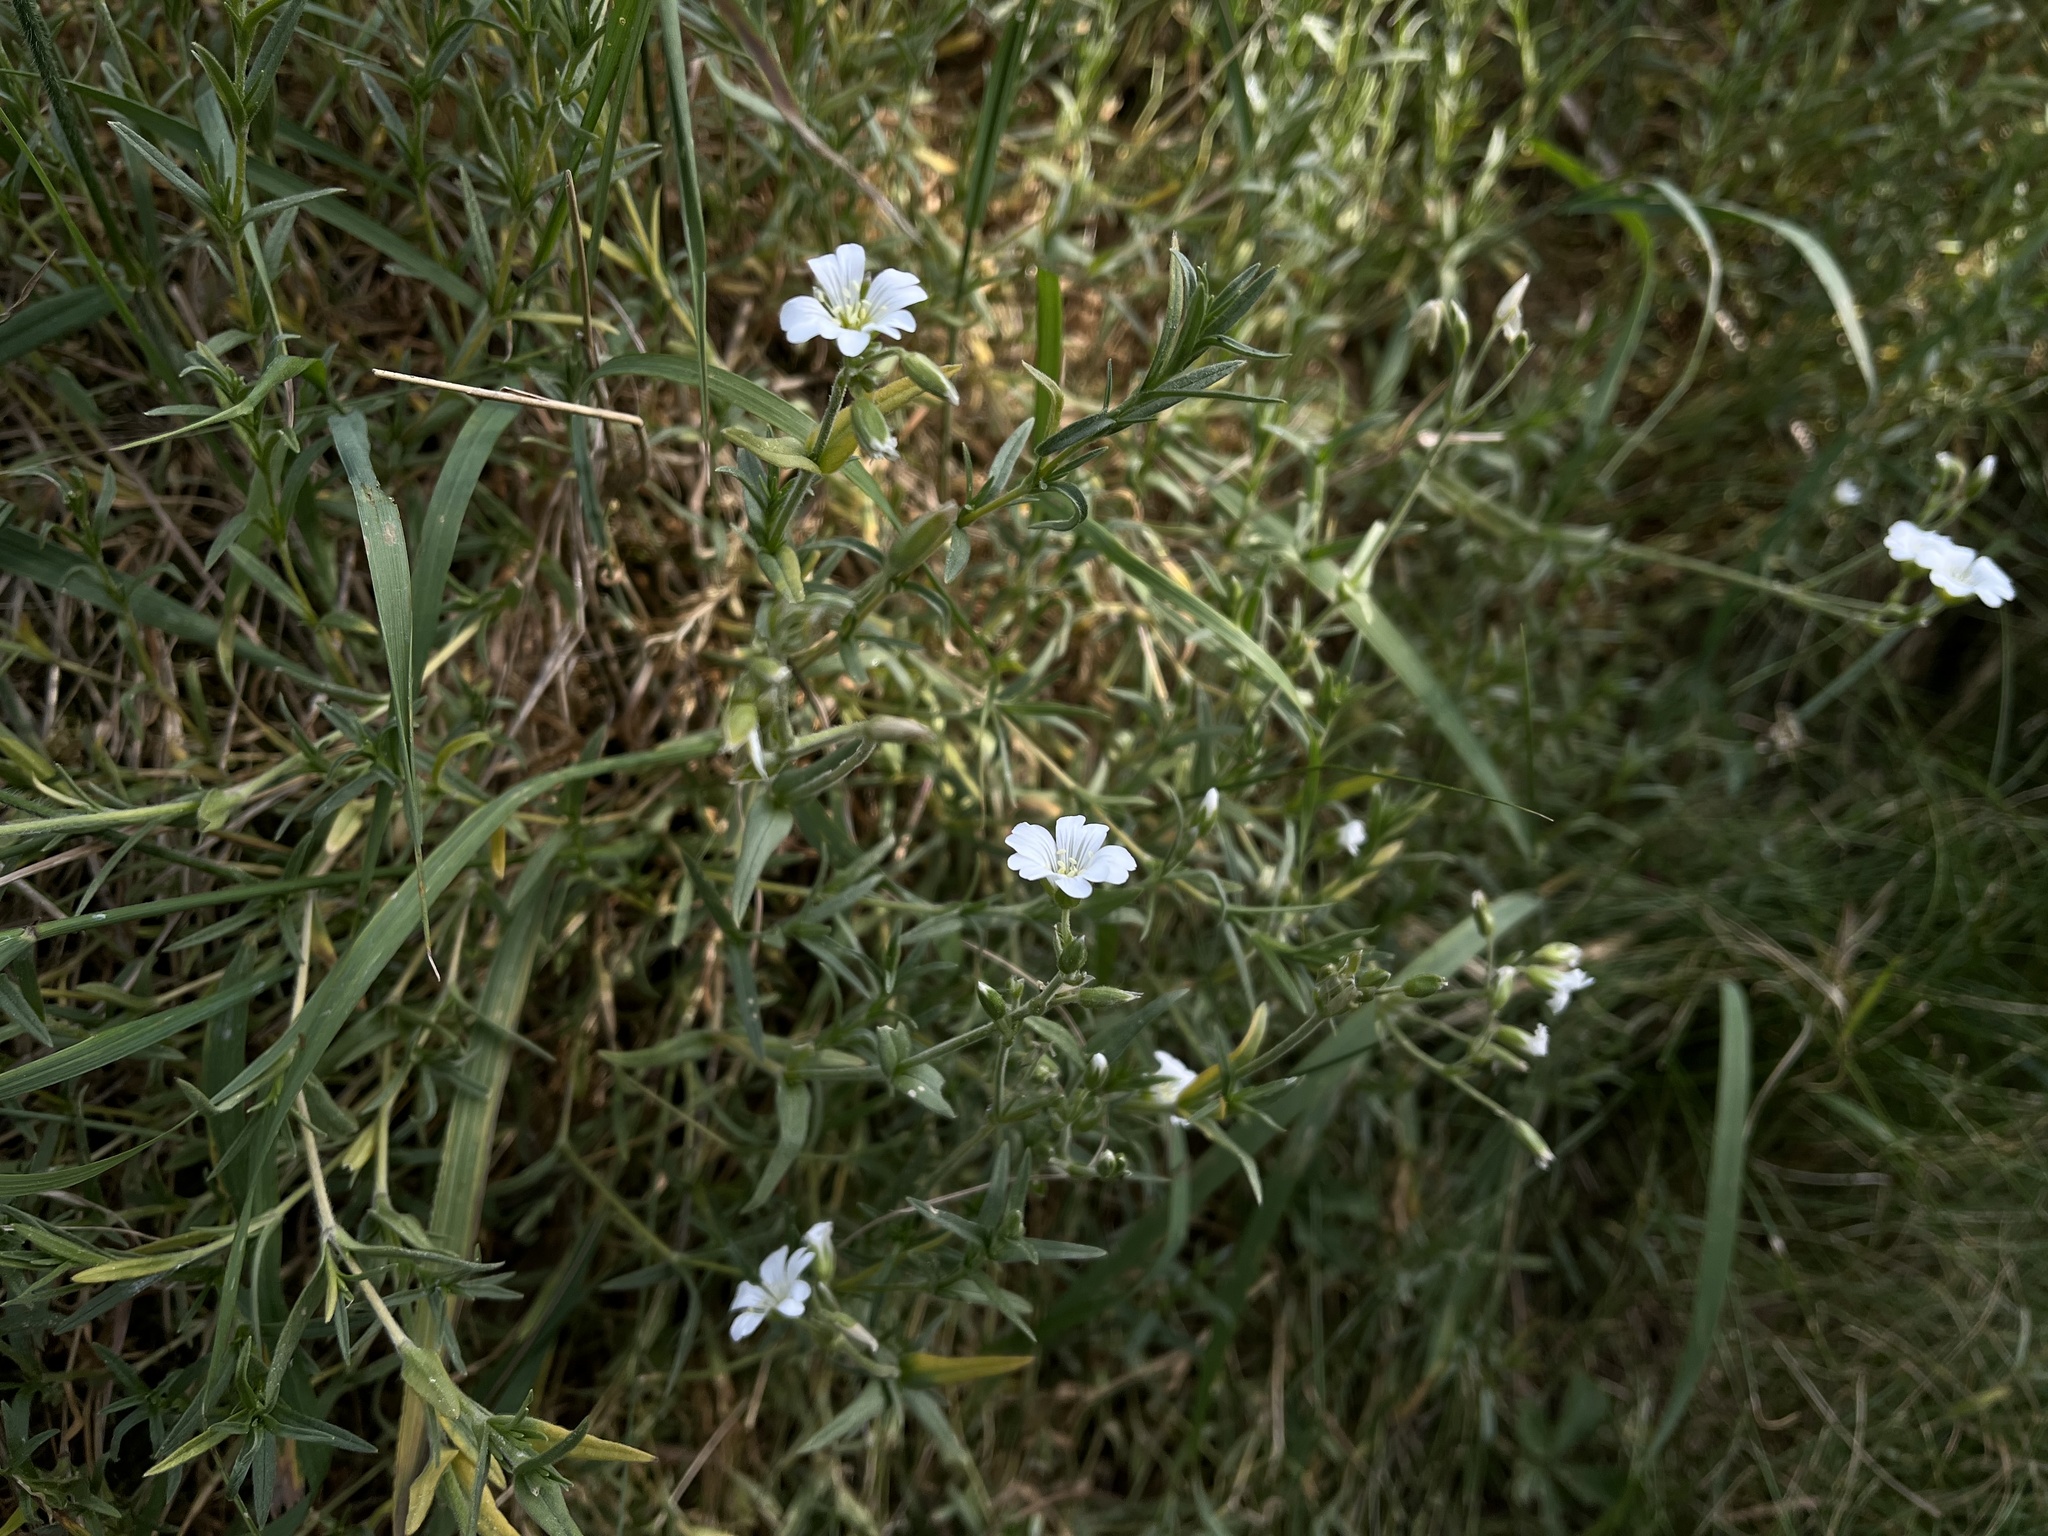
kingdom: Plantae
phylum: Tracheophyta
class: Magnoliopsida
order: Caryophyllales
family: Caryophyllaceae
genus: Cerastium
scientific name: Cerastium arvense
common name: Field mouse-ear
